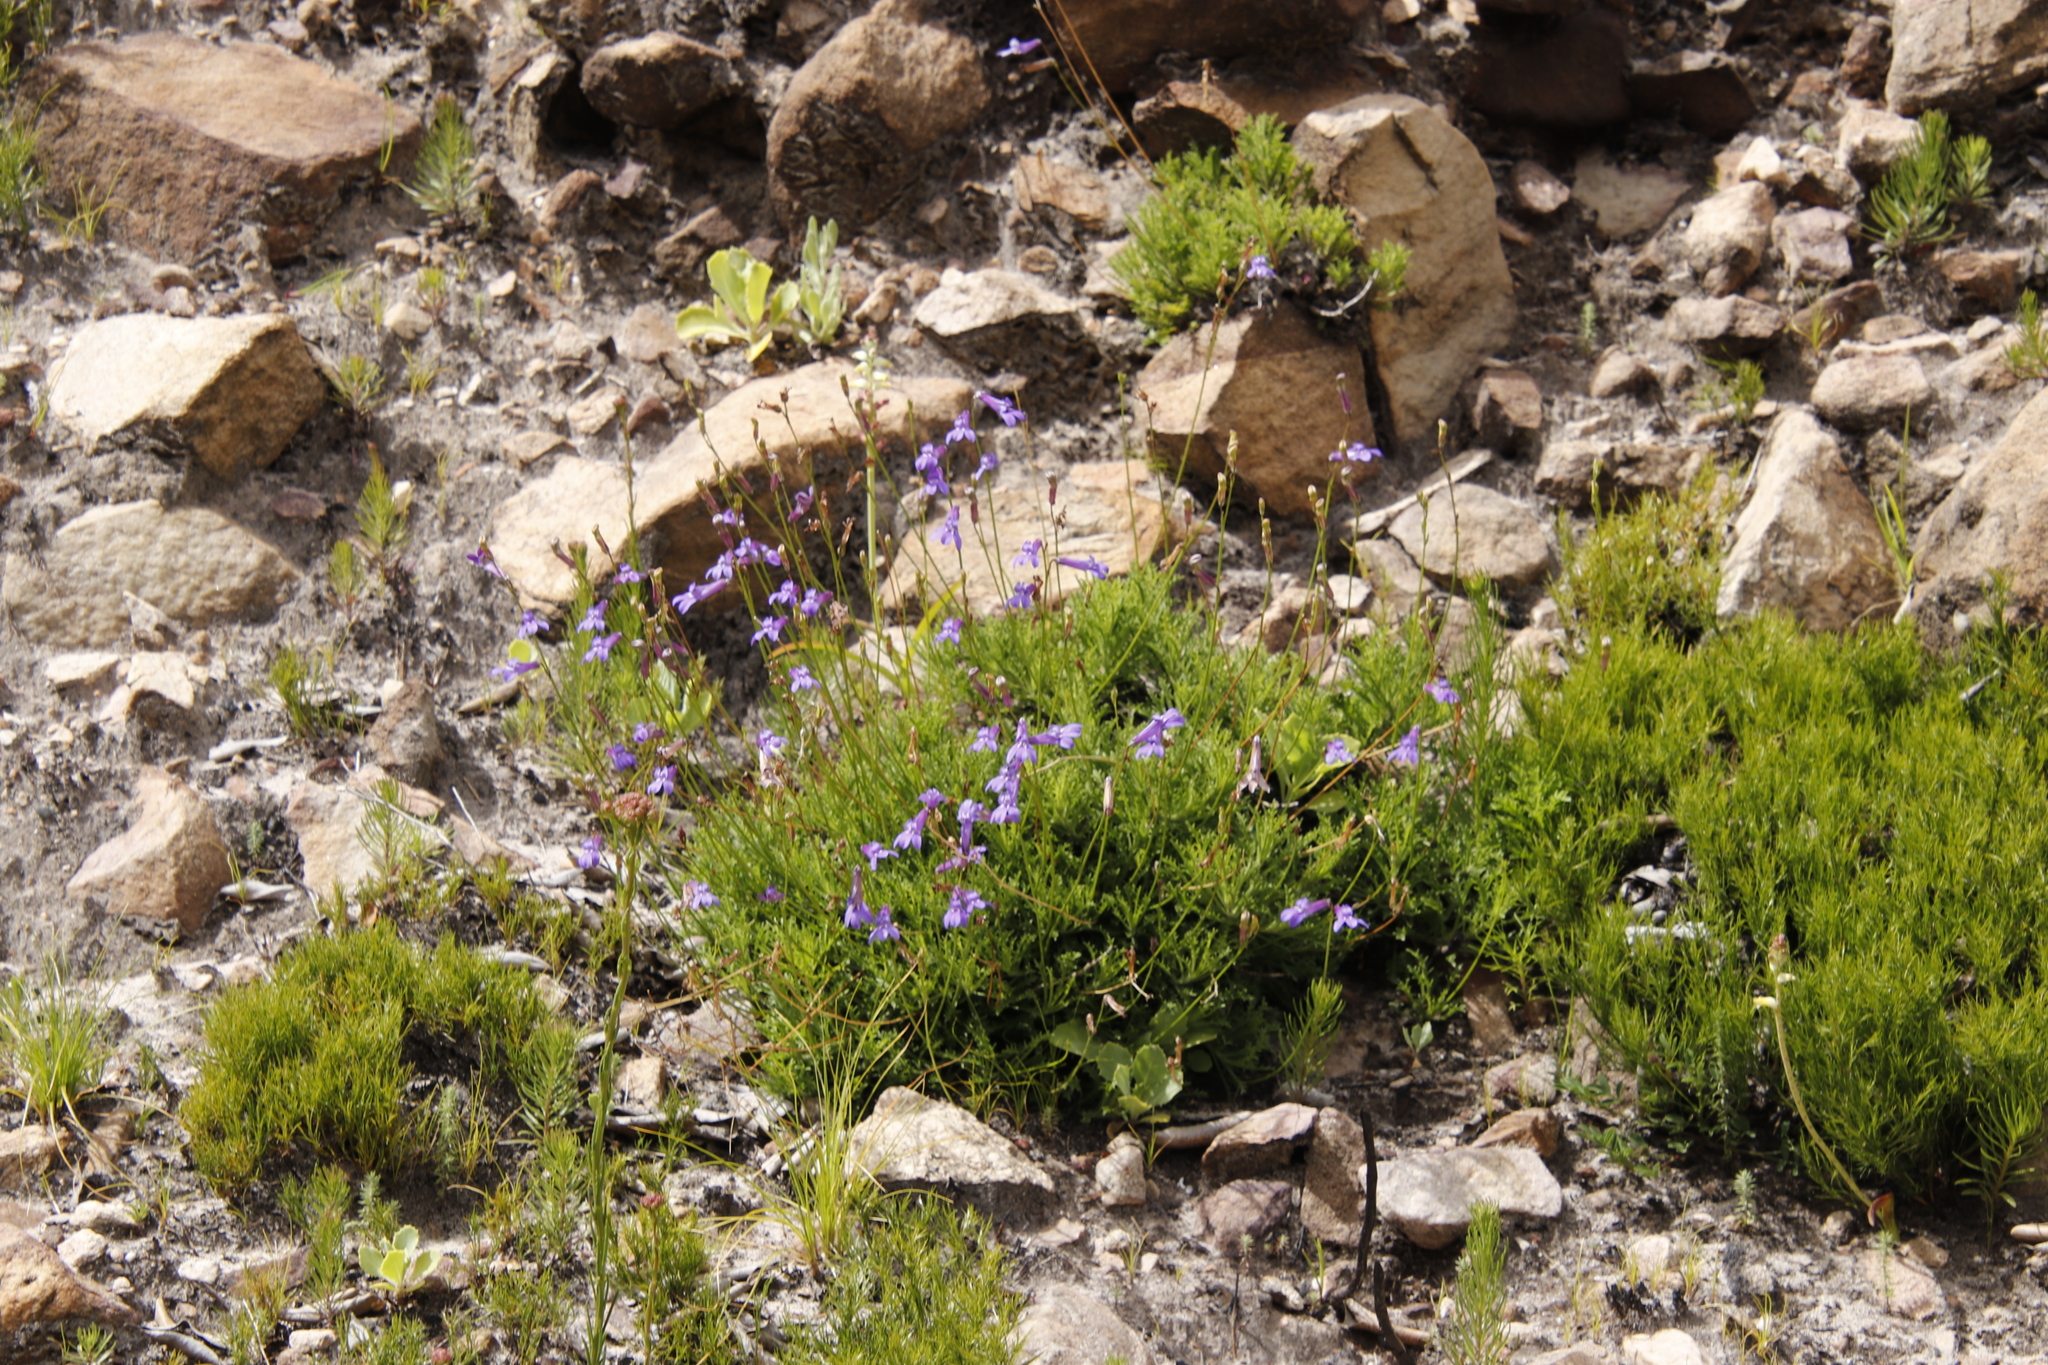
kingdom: Plantae
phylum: Tracheophyta
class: Magnoliopsida
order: Asterales
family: Campanulaceae
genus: Lobelia
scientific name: Lobelia coronopifolia
